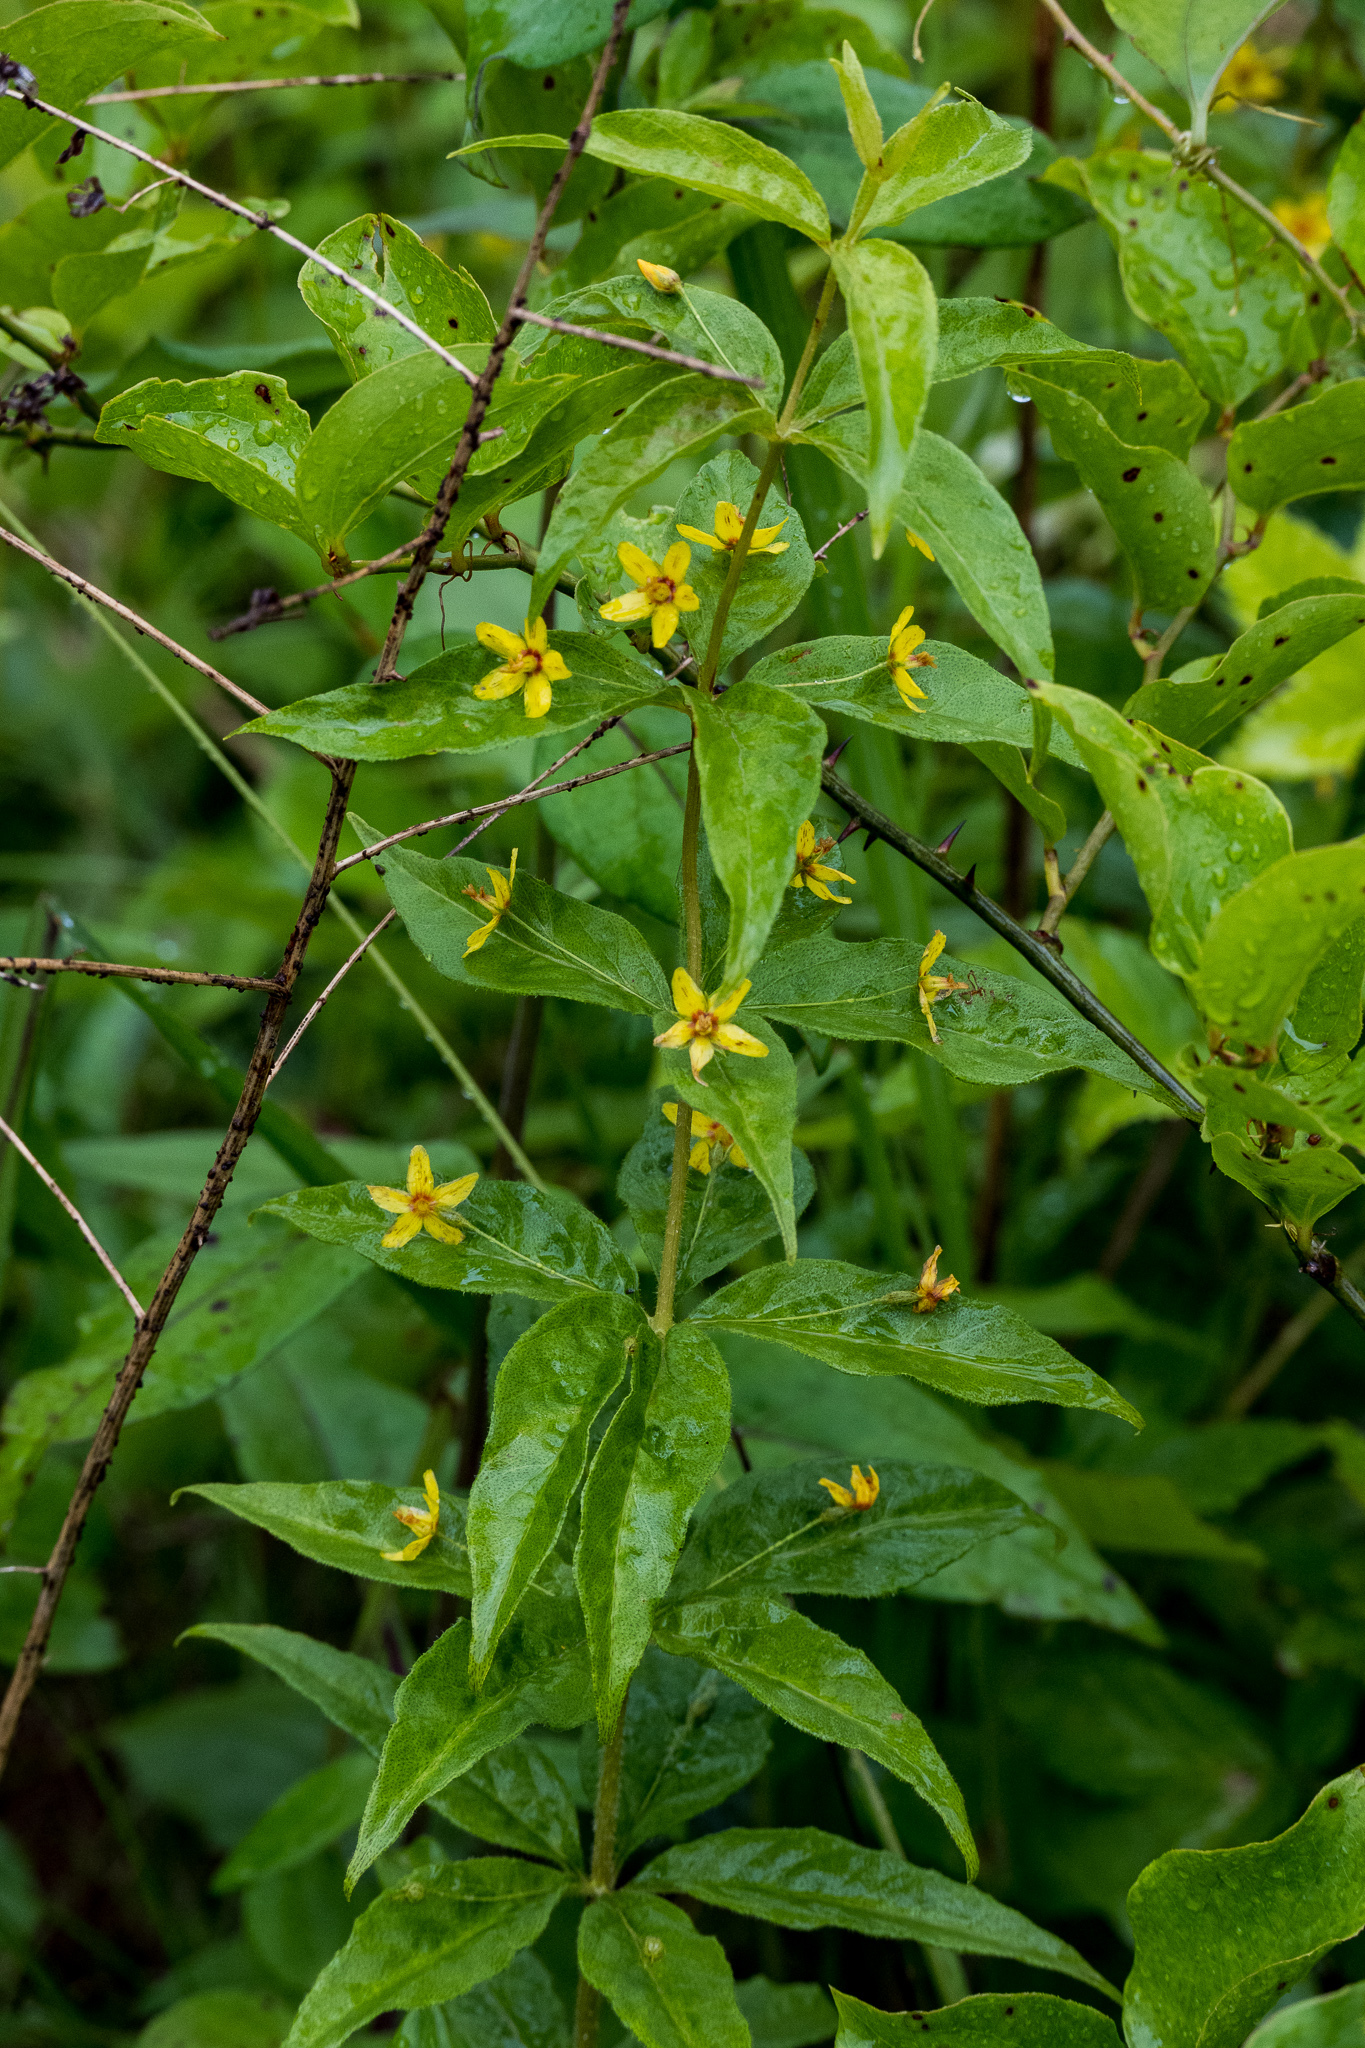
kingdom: Plantae
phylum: Tracheophyta
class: Magnoliopsida
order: Ericales
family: Primulaceae
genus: Lysimachia
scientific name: Lysimachia quadrifolia
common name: Whorled loosestrife
